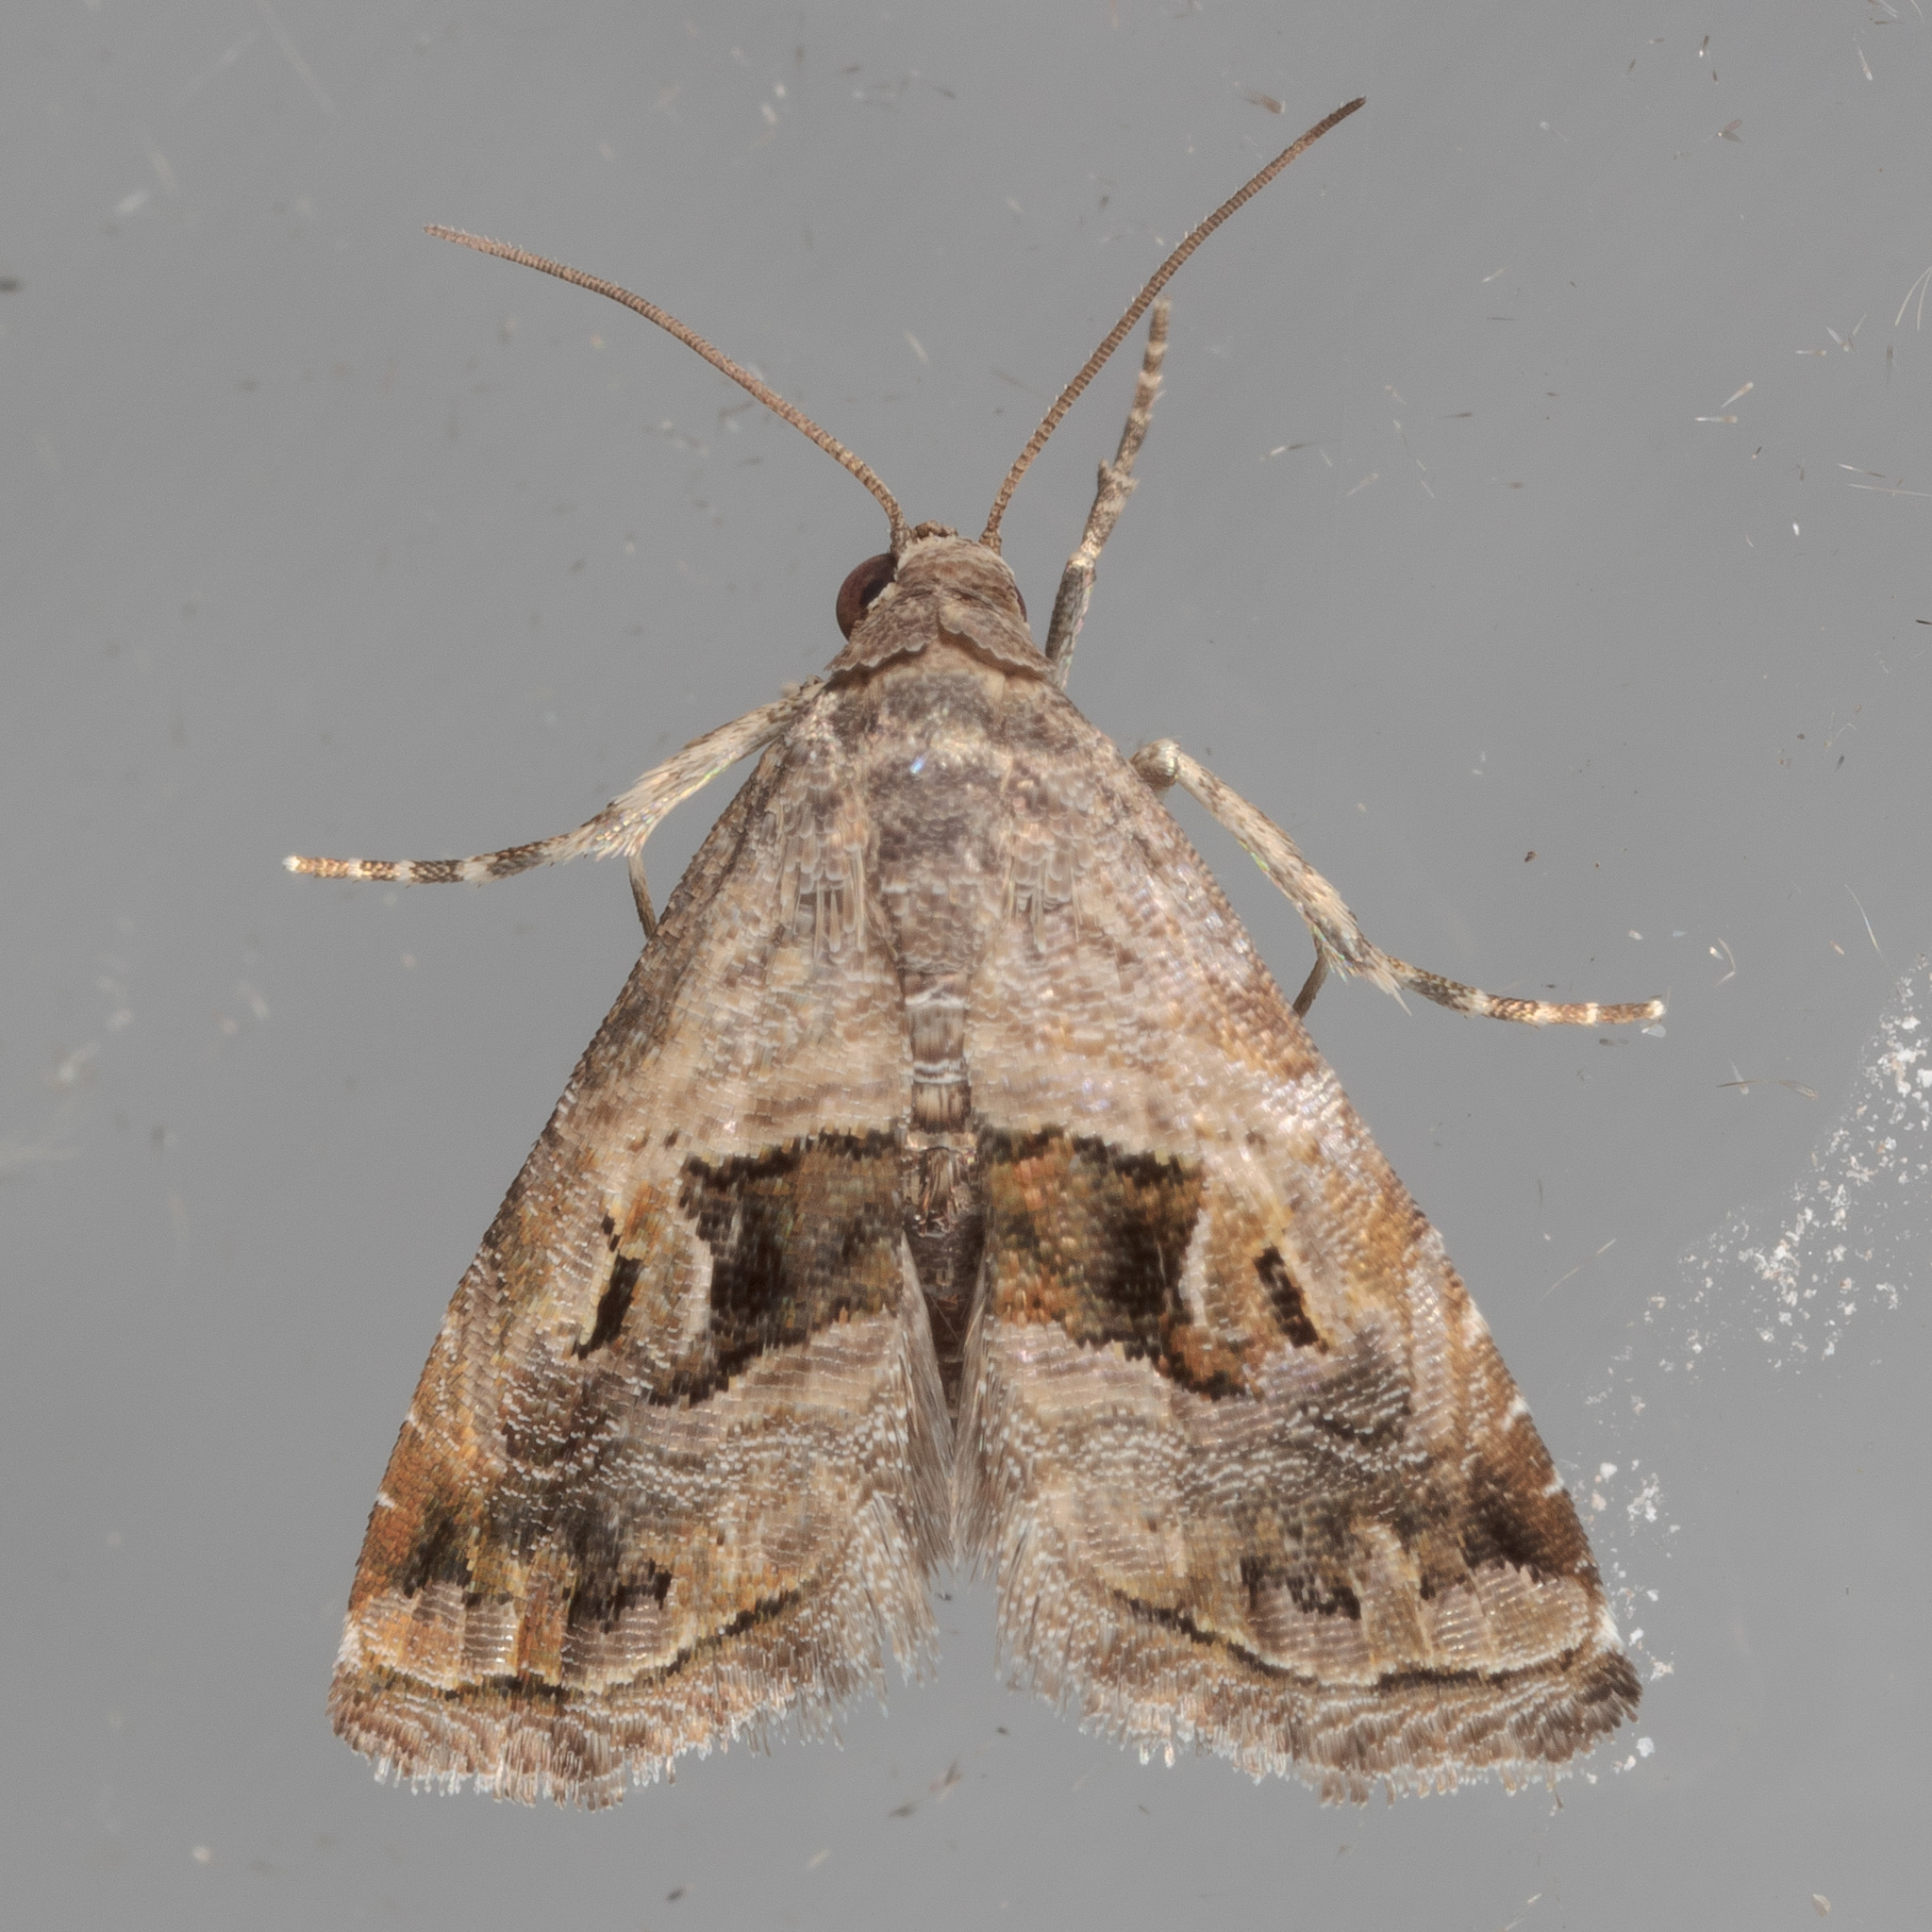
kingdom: Animalia
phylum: Arthropoda
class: Insecta
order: Lepidoptera
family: Noctuidae
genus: Tripudia
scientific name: Tripudia quadrifera
